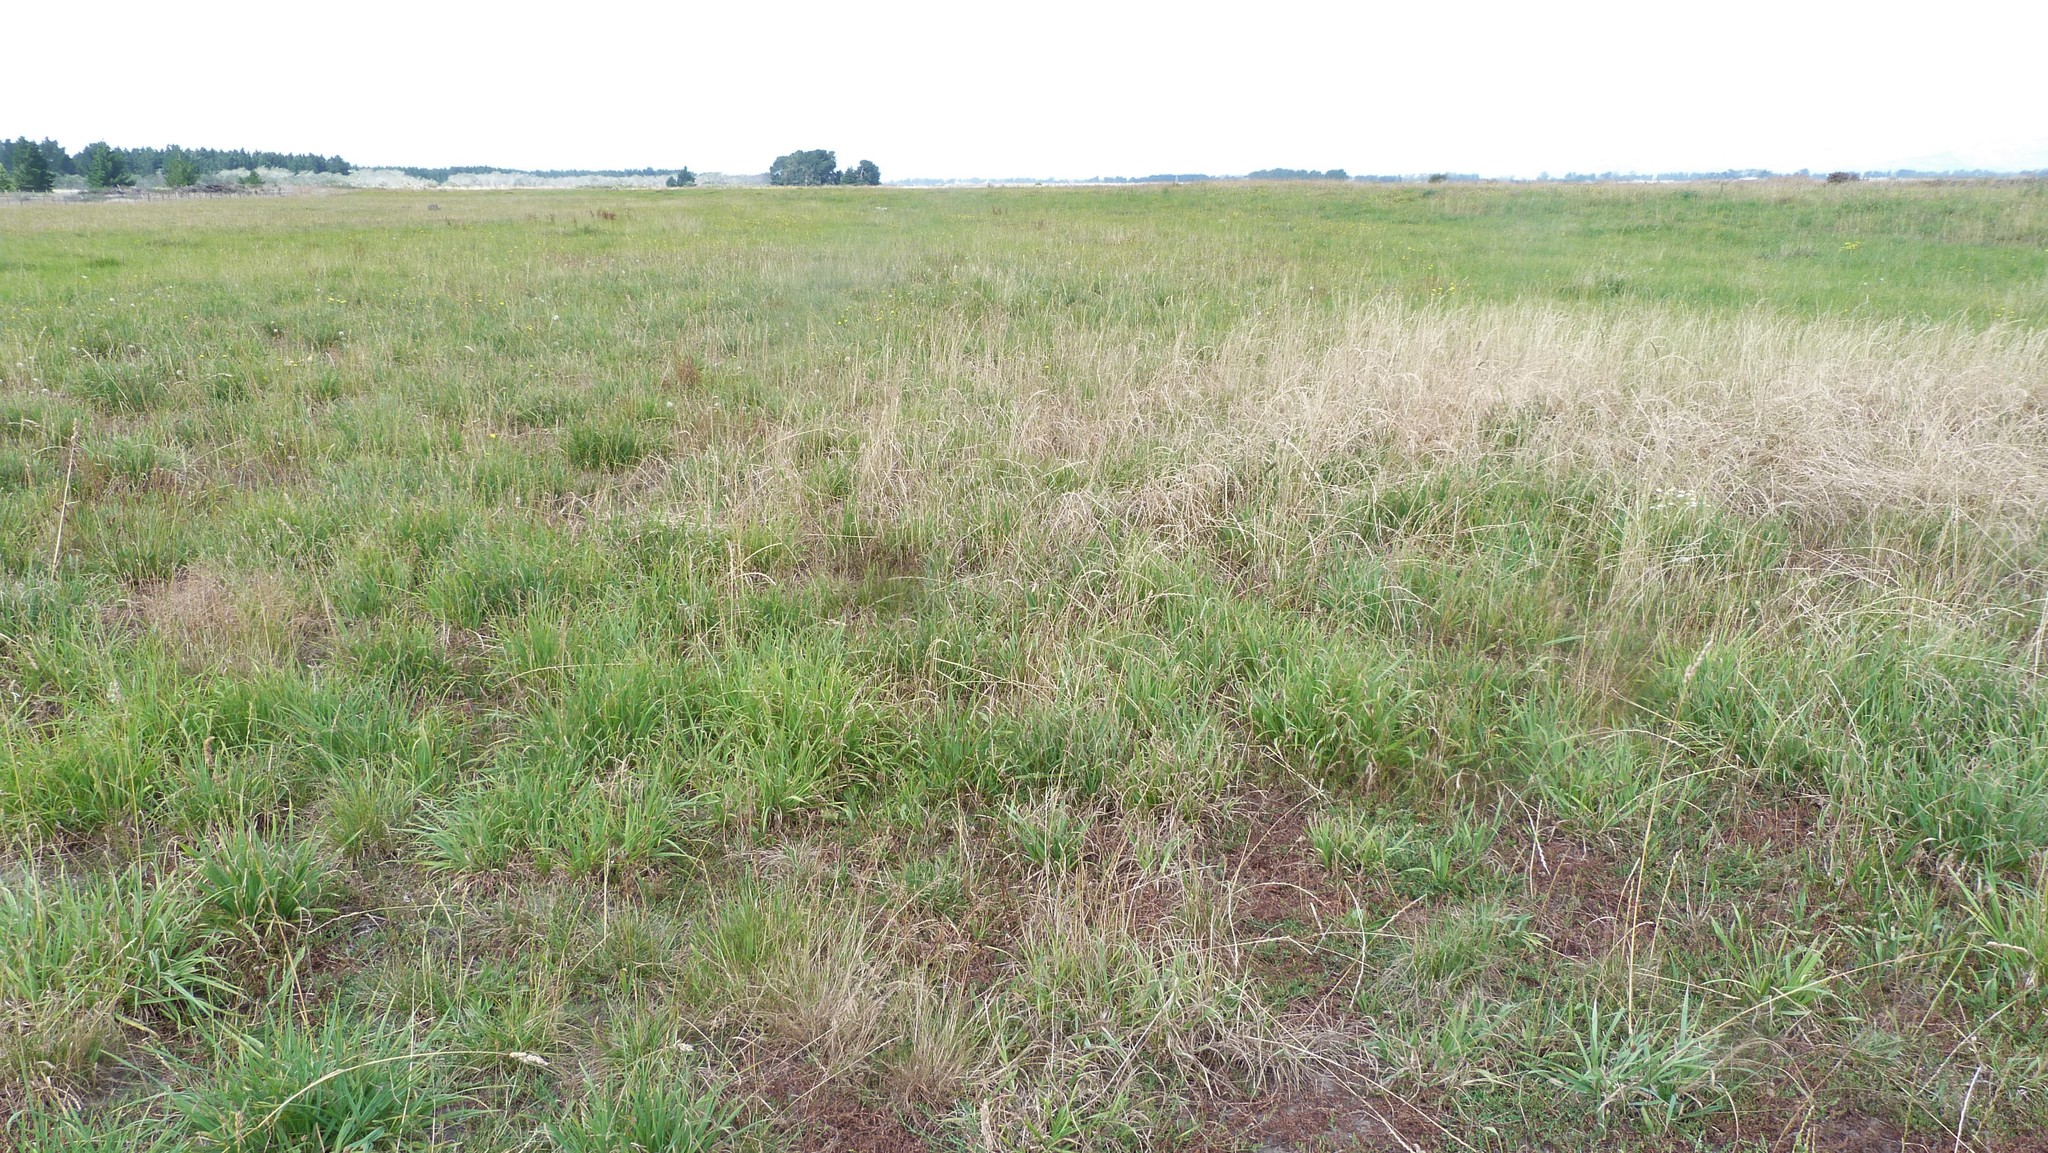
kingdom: Plantae
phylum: Tracheophyta
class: Liliopsida
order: Poales
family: Poaceae
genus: Dactylis
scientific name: Dactylis glomerata
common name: Orchardgrass
